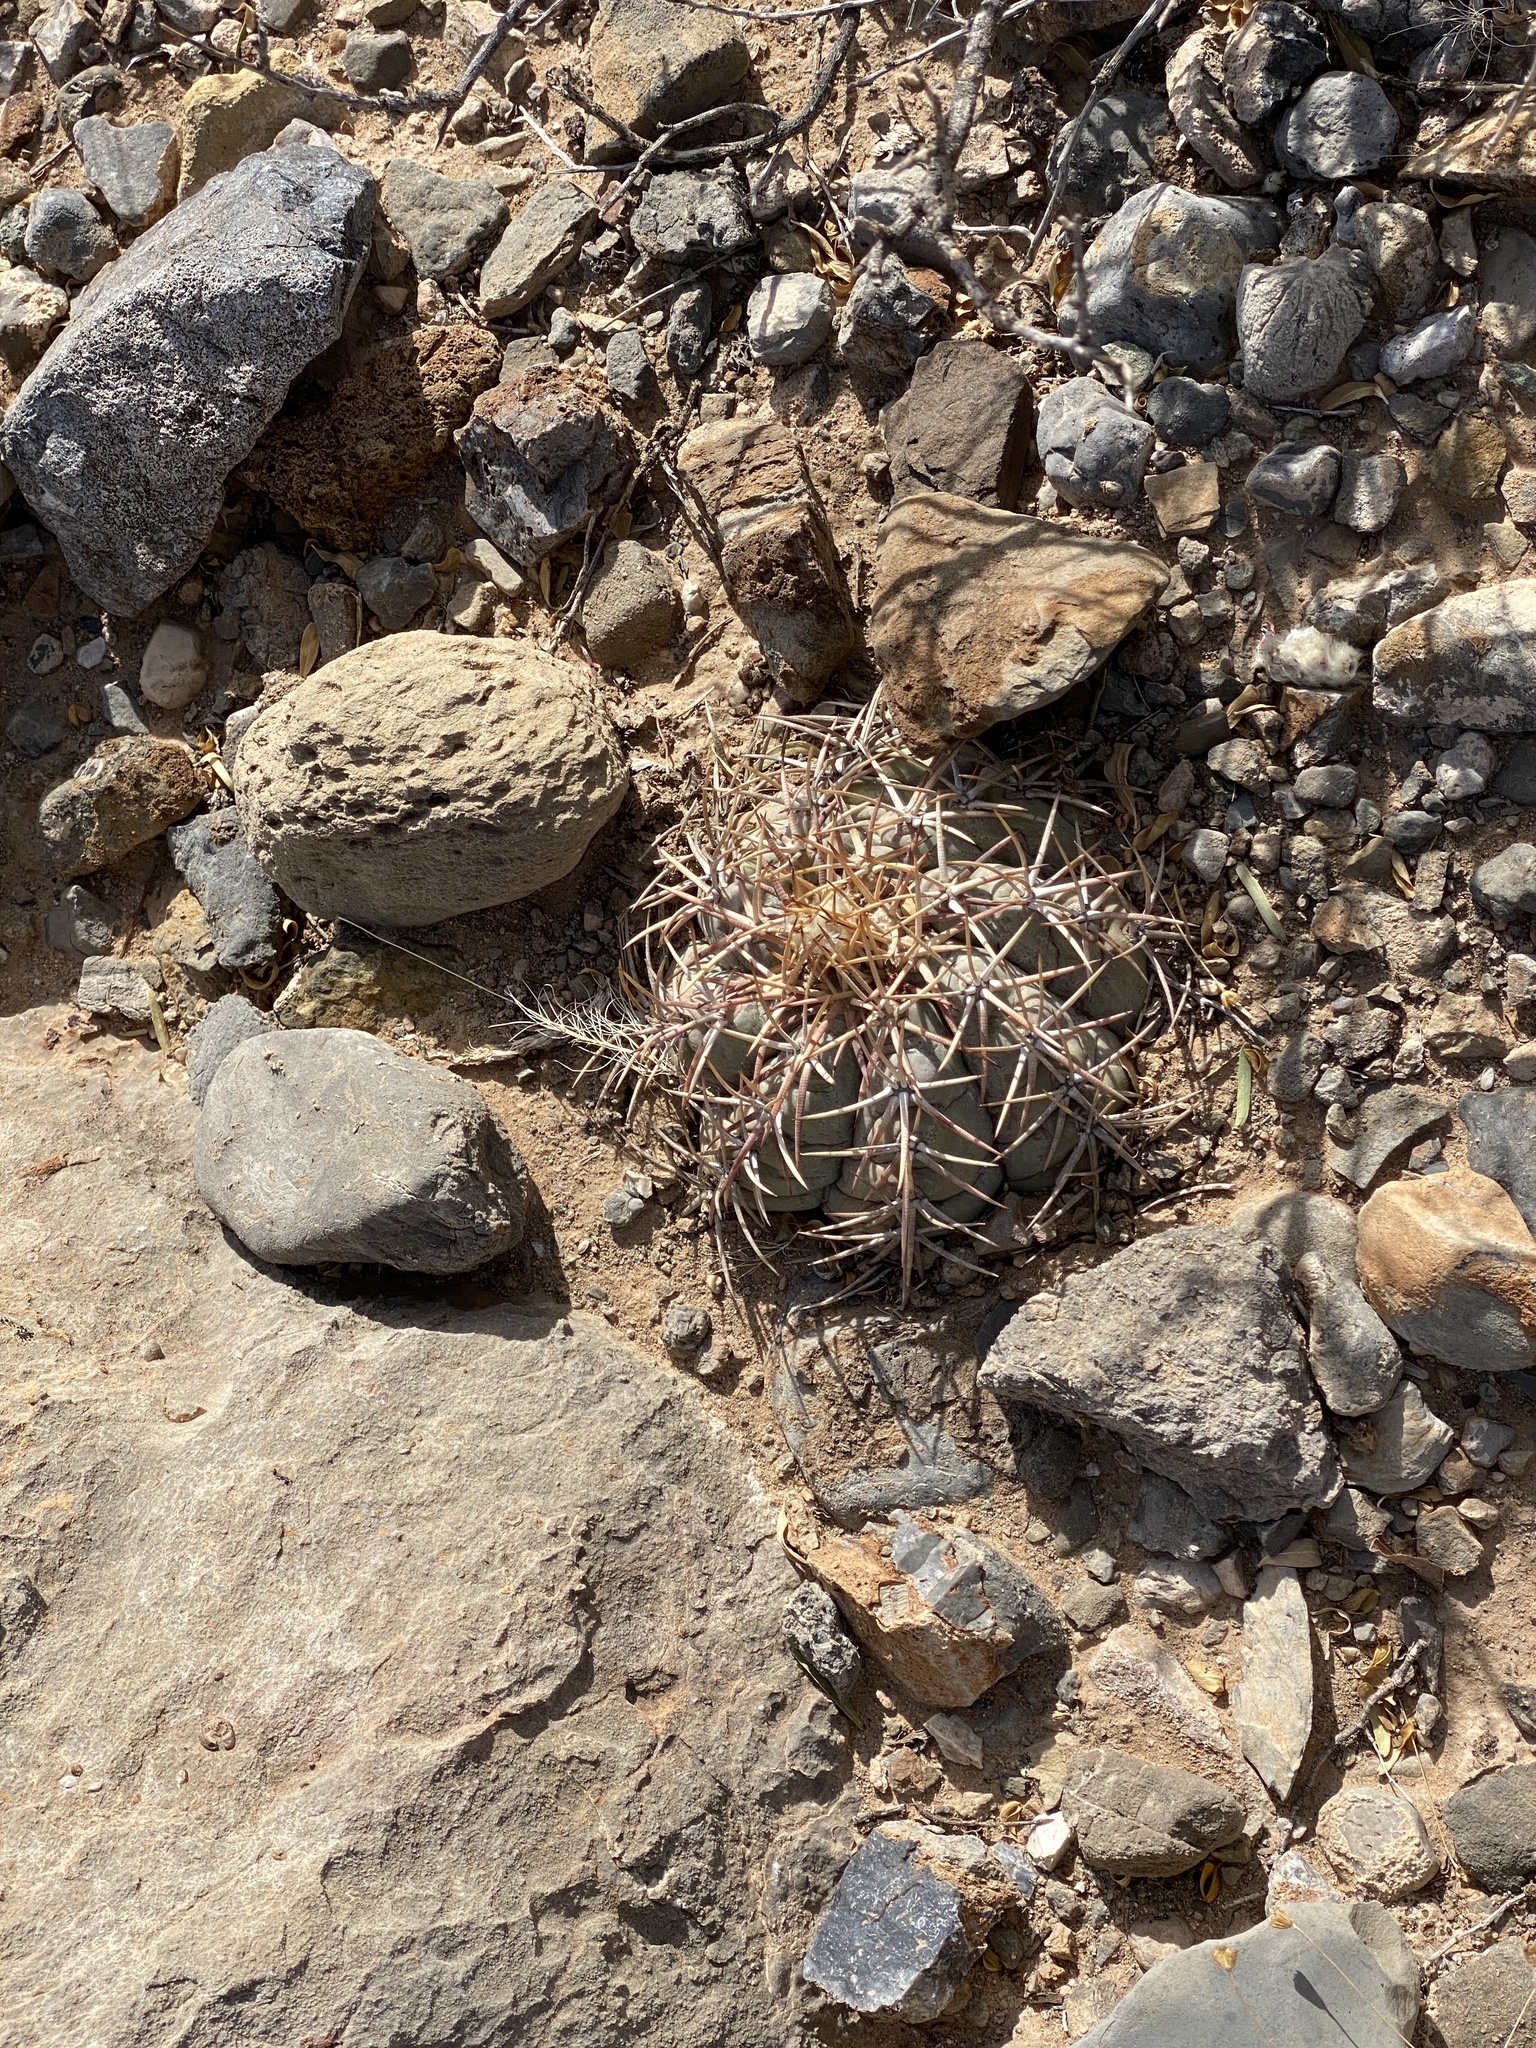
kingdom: Plantae
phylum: Tracheophyta
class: Magnoliopsida
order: Caryophyllales
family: Cactaceae
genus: Echinocactus
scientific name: Echinocactus horizonthalonius
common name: Devilshead
